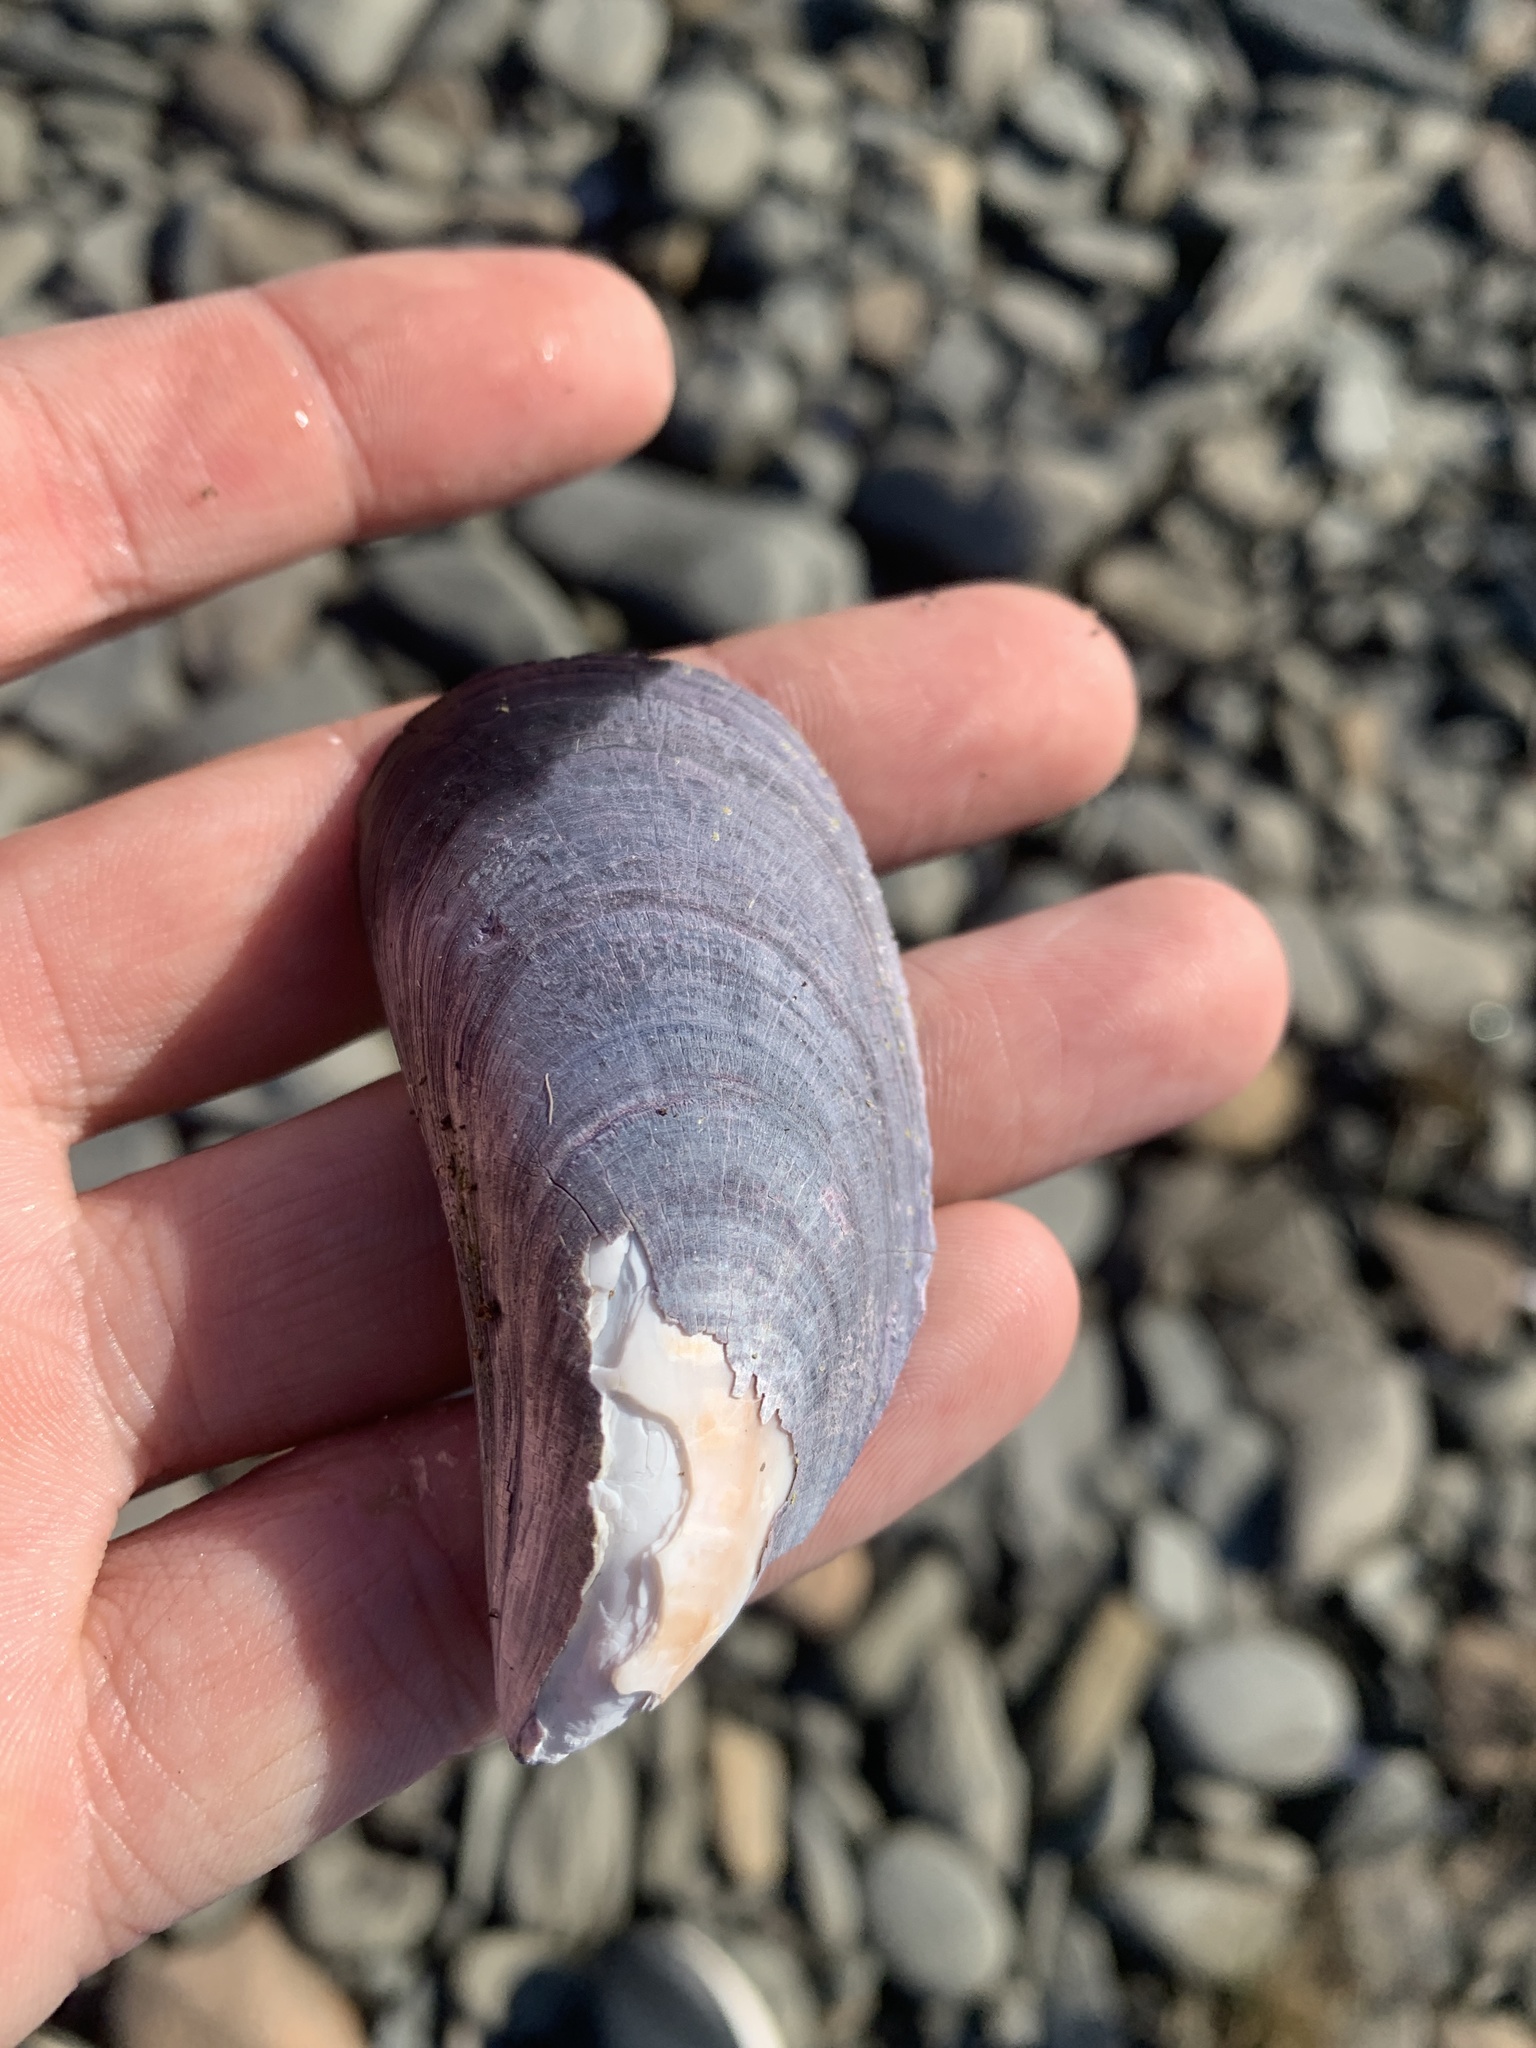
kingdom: Animalia
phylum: Mollusca
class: Bivalvia
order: Mytilida
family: Mytilidae
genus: Mytilus
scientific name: Mytilus edulis
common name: Blue mussel
